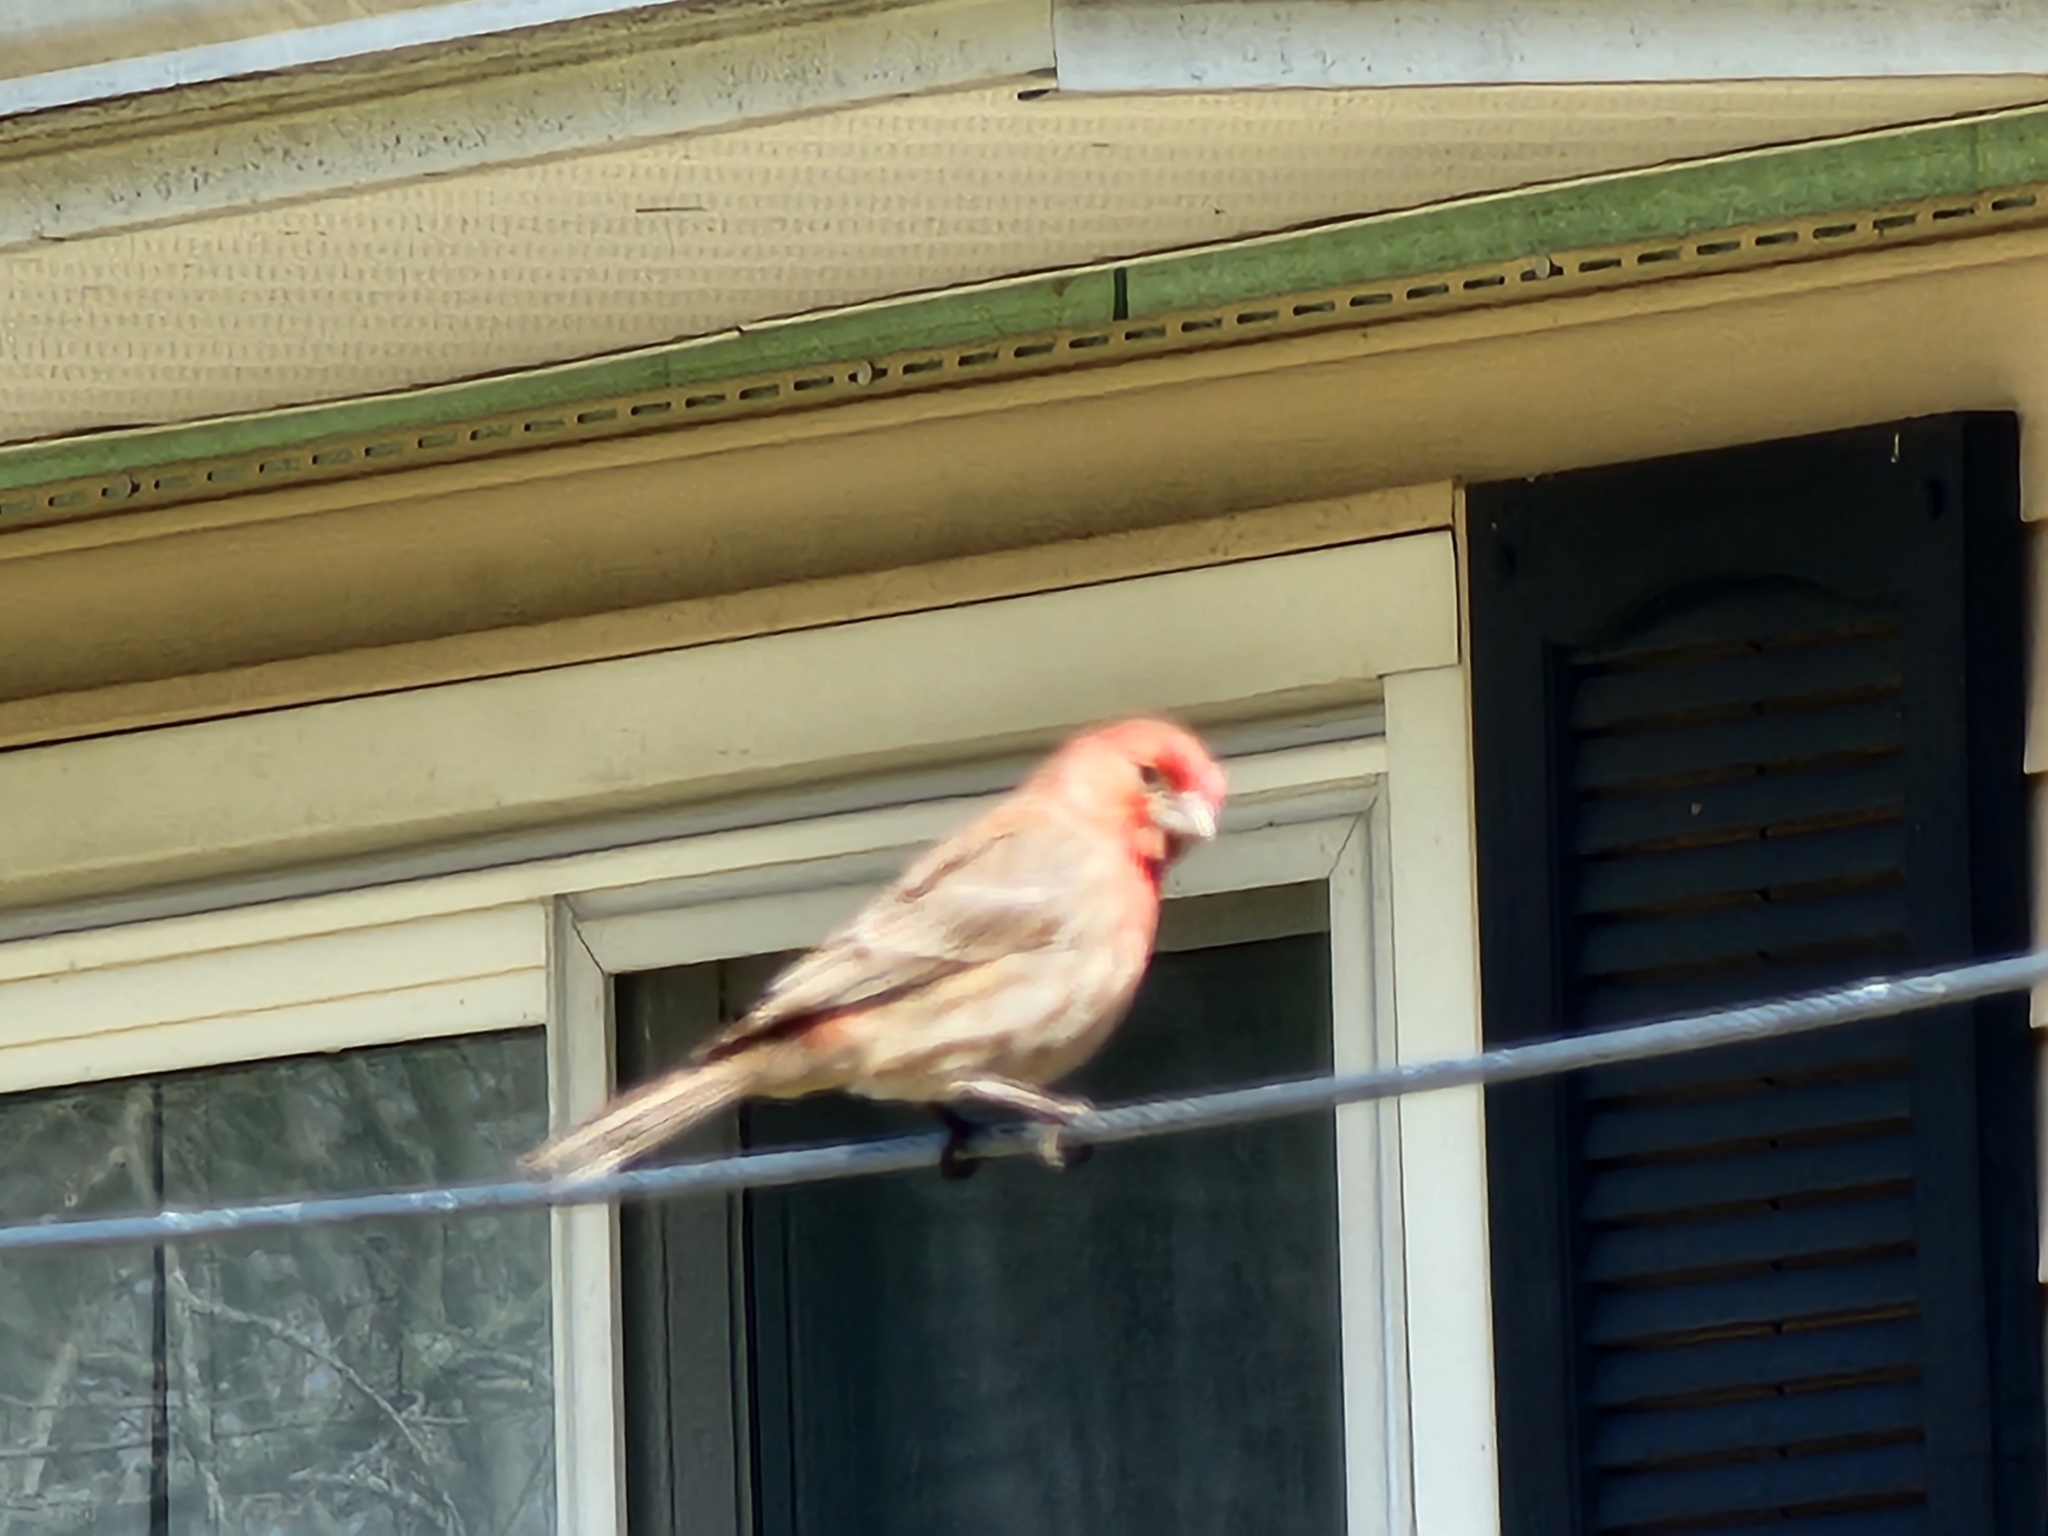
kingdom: Animalia
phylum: Chordata
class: Aves
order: Passeriformes
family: Fringillidae
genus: Haemorhous
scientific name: Haemorhous mexicanus
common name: House finch
